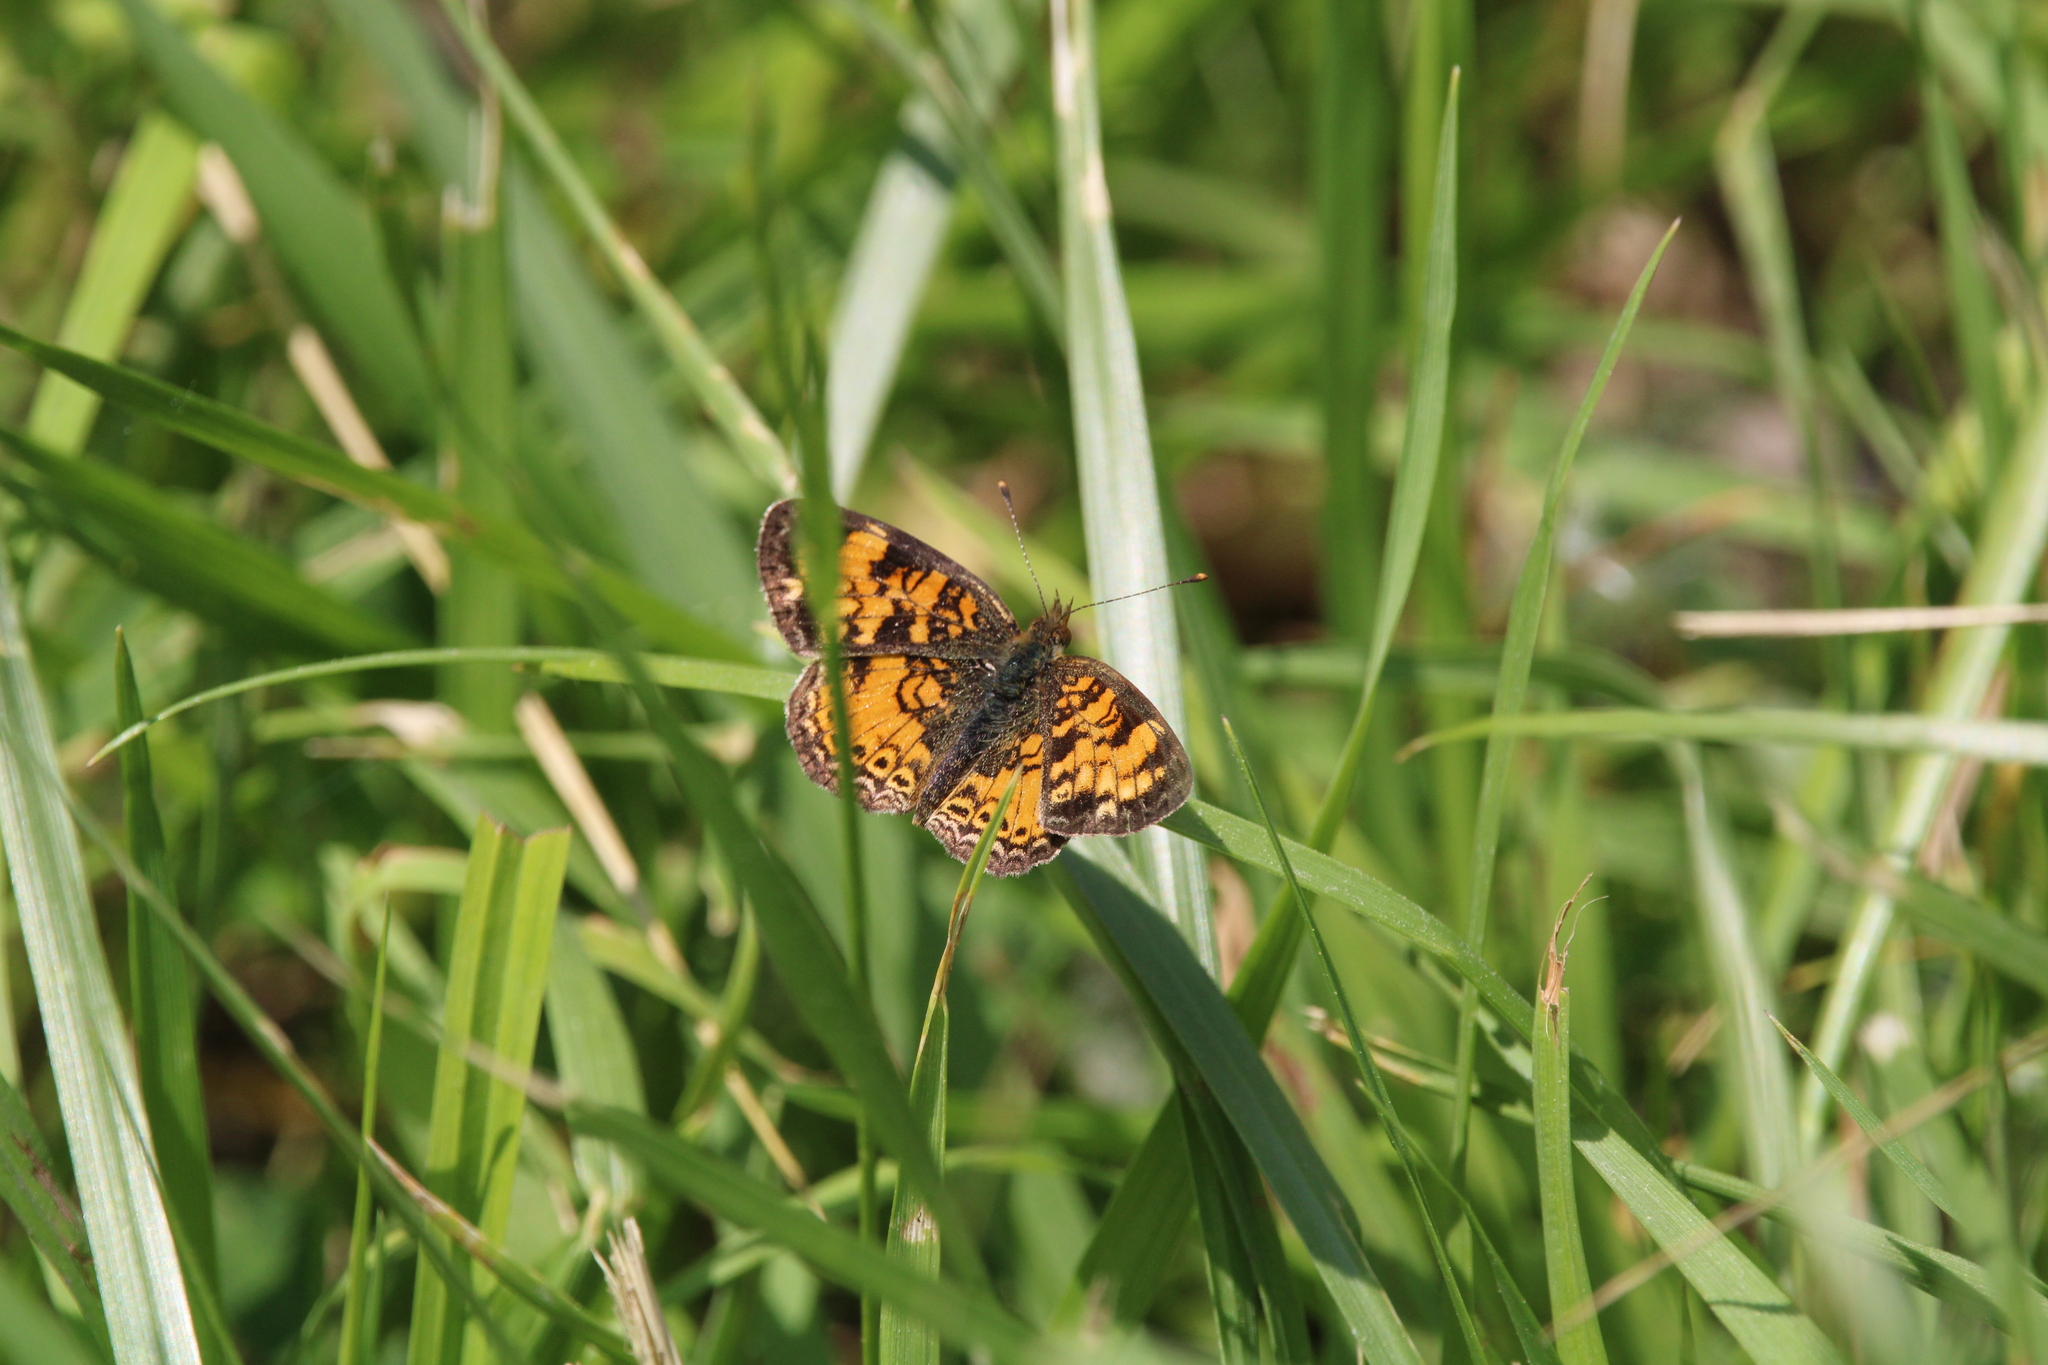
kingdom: Animalia
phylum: Arthropoda
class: Insecta
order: Lepidoptera
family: Nymphalidae
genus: Phyciodes
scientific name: Phyciodes tharos
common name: Pearl crescent
